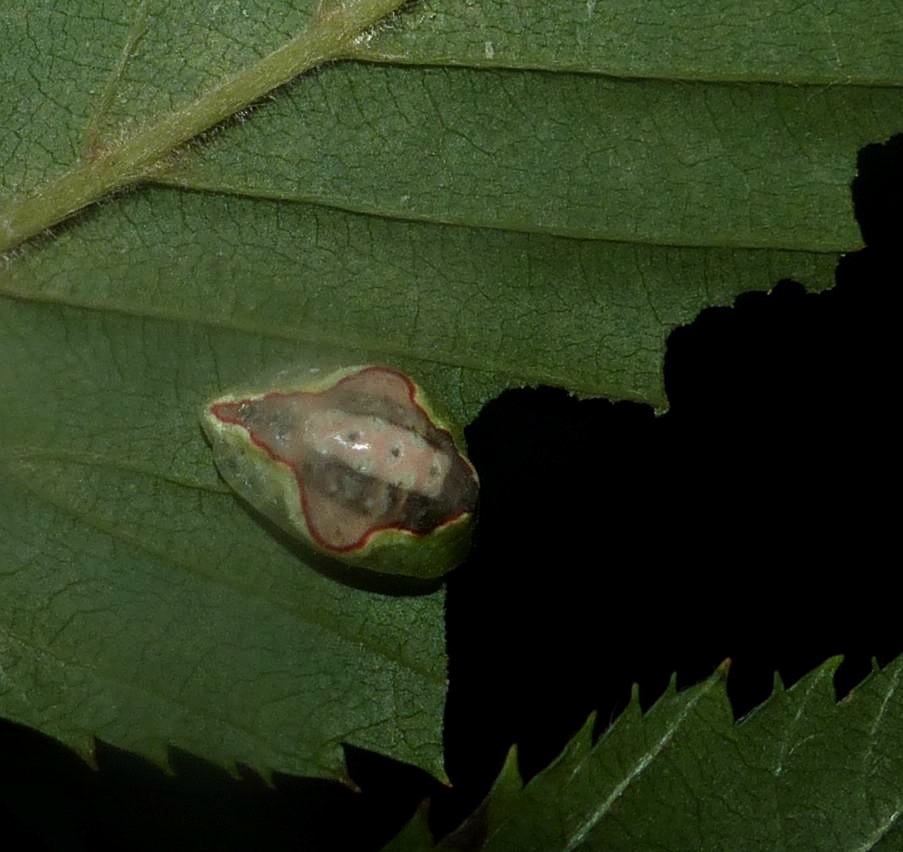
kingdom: Animalia
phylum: Arthropoda
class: Insecta
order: Lepidoptera
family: Limacodidae
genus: Tortricidia
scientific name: Tortricidia pallida
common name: Red-crossed button slug moth
